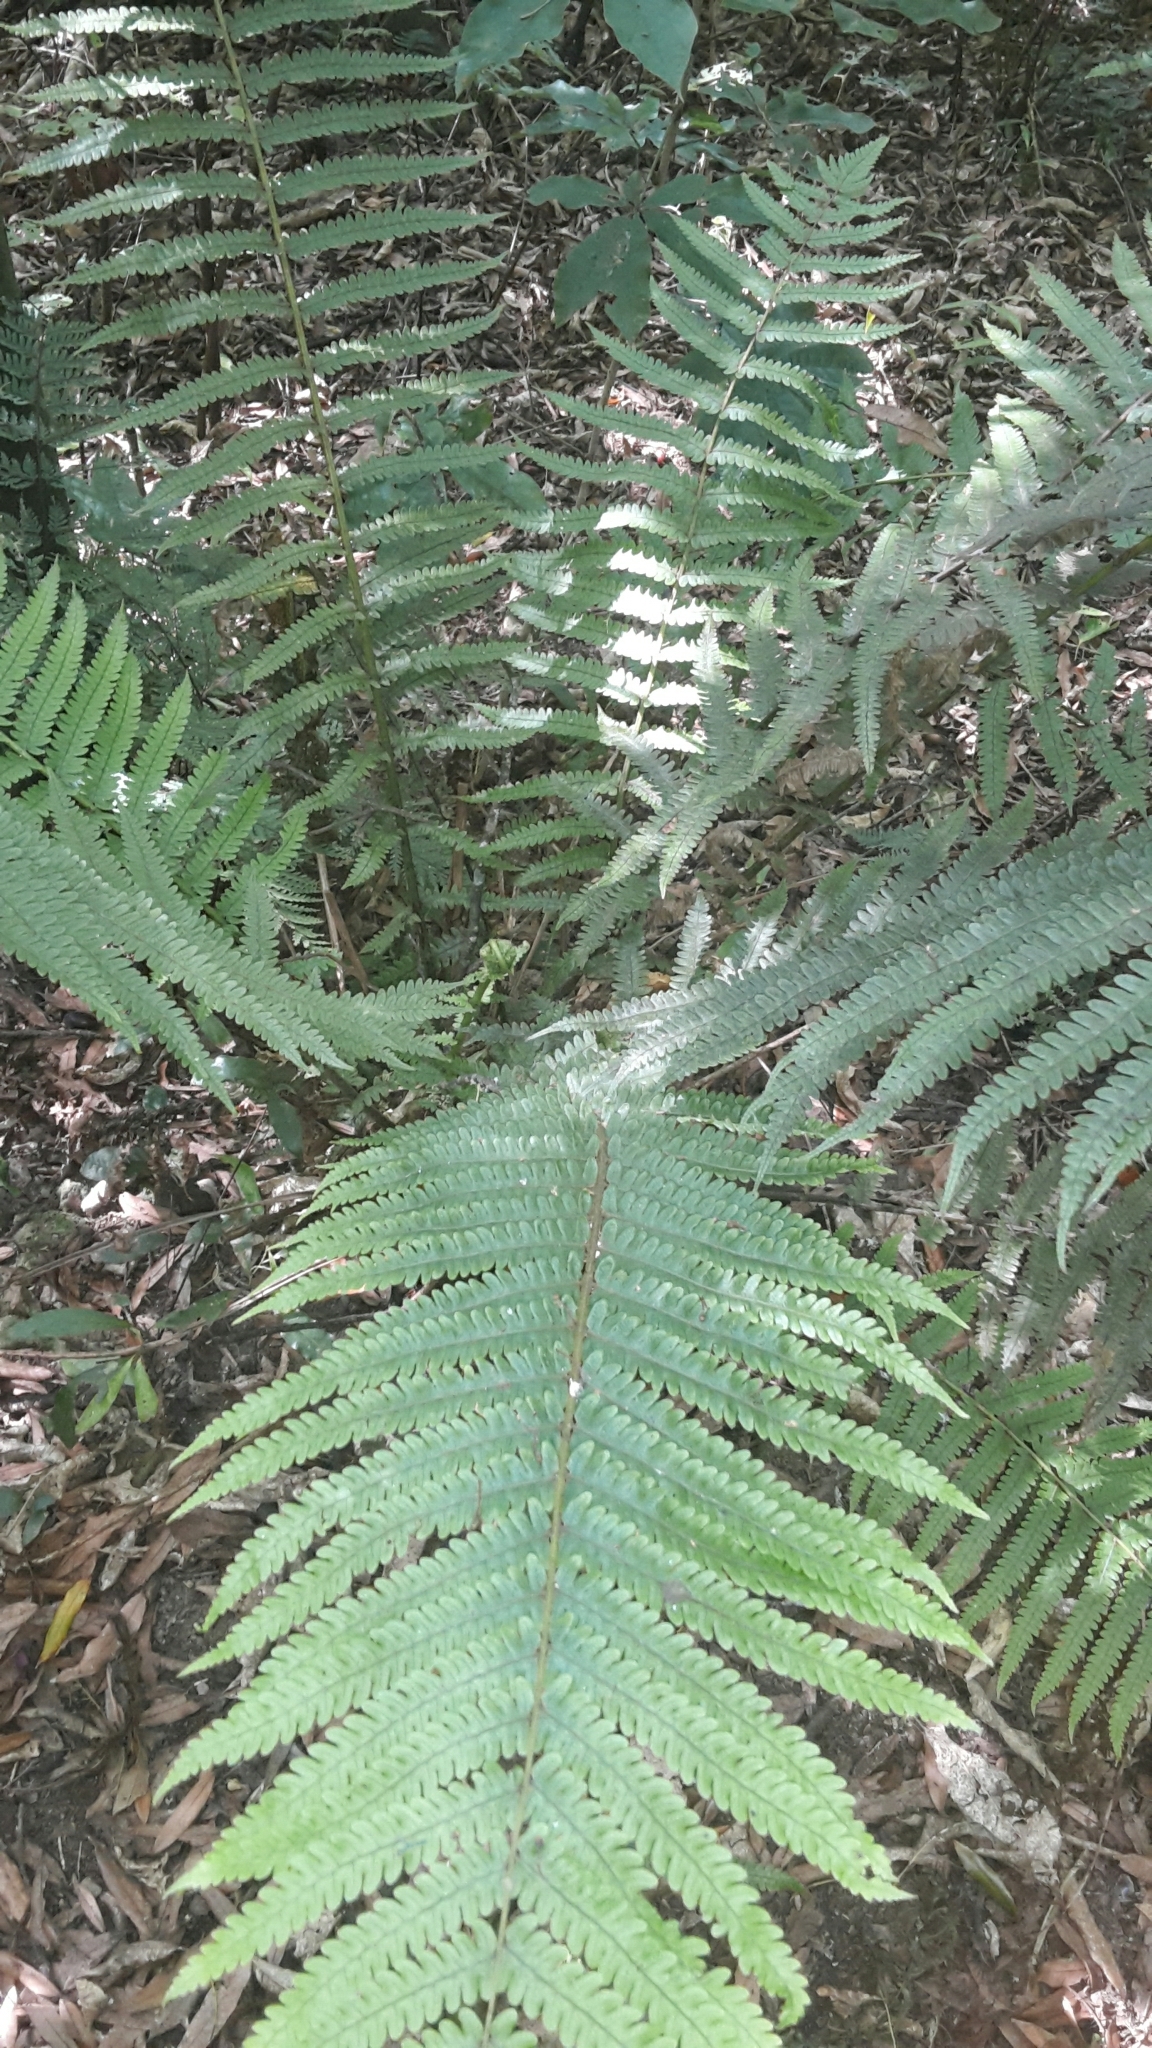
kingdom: Plantae
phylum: Tracheophyta
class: Polypodiopsida
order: Polypodiales
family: Thelypteridaceae
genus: Pakau
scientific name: Pakau pennigera
